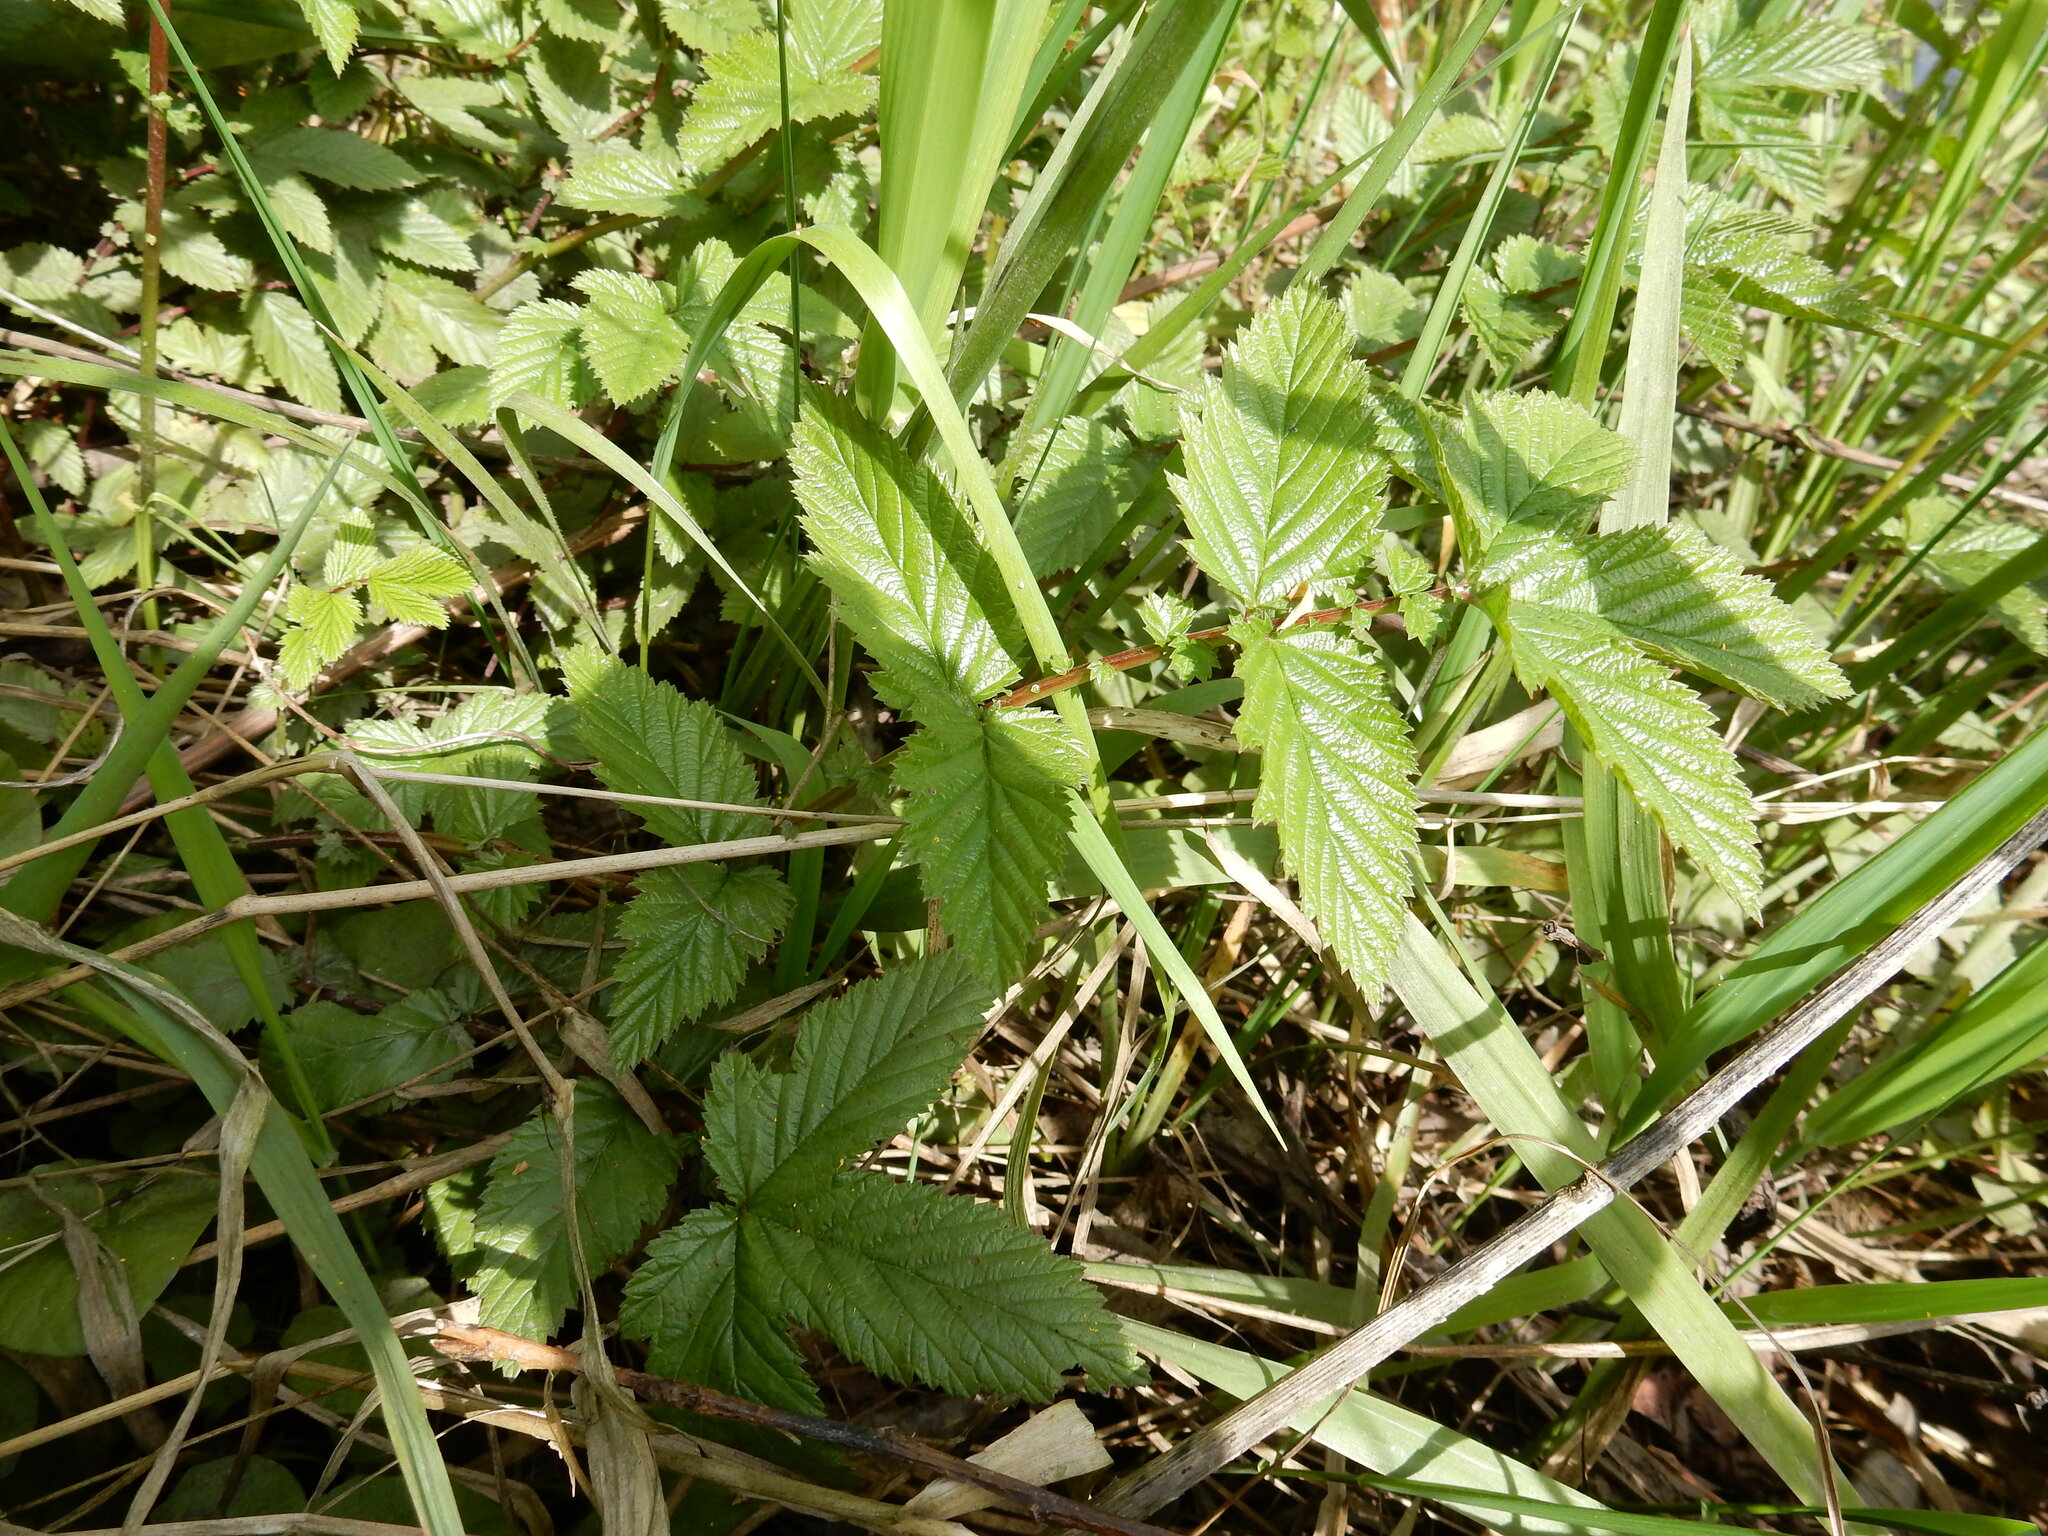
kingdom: Plantae
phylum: Tracheophyta
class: Magnoliopsida
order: Rosales
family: Rosaceae
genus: Filipendula
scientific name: Filipendula ulmaria
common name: Meadowsweet
